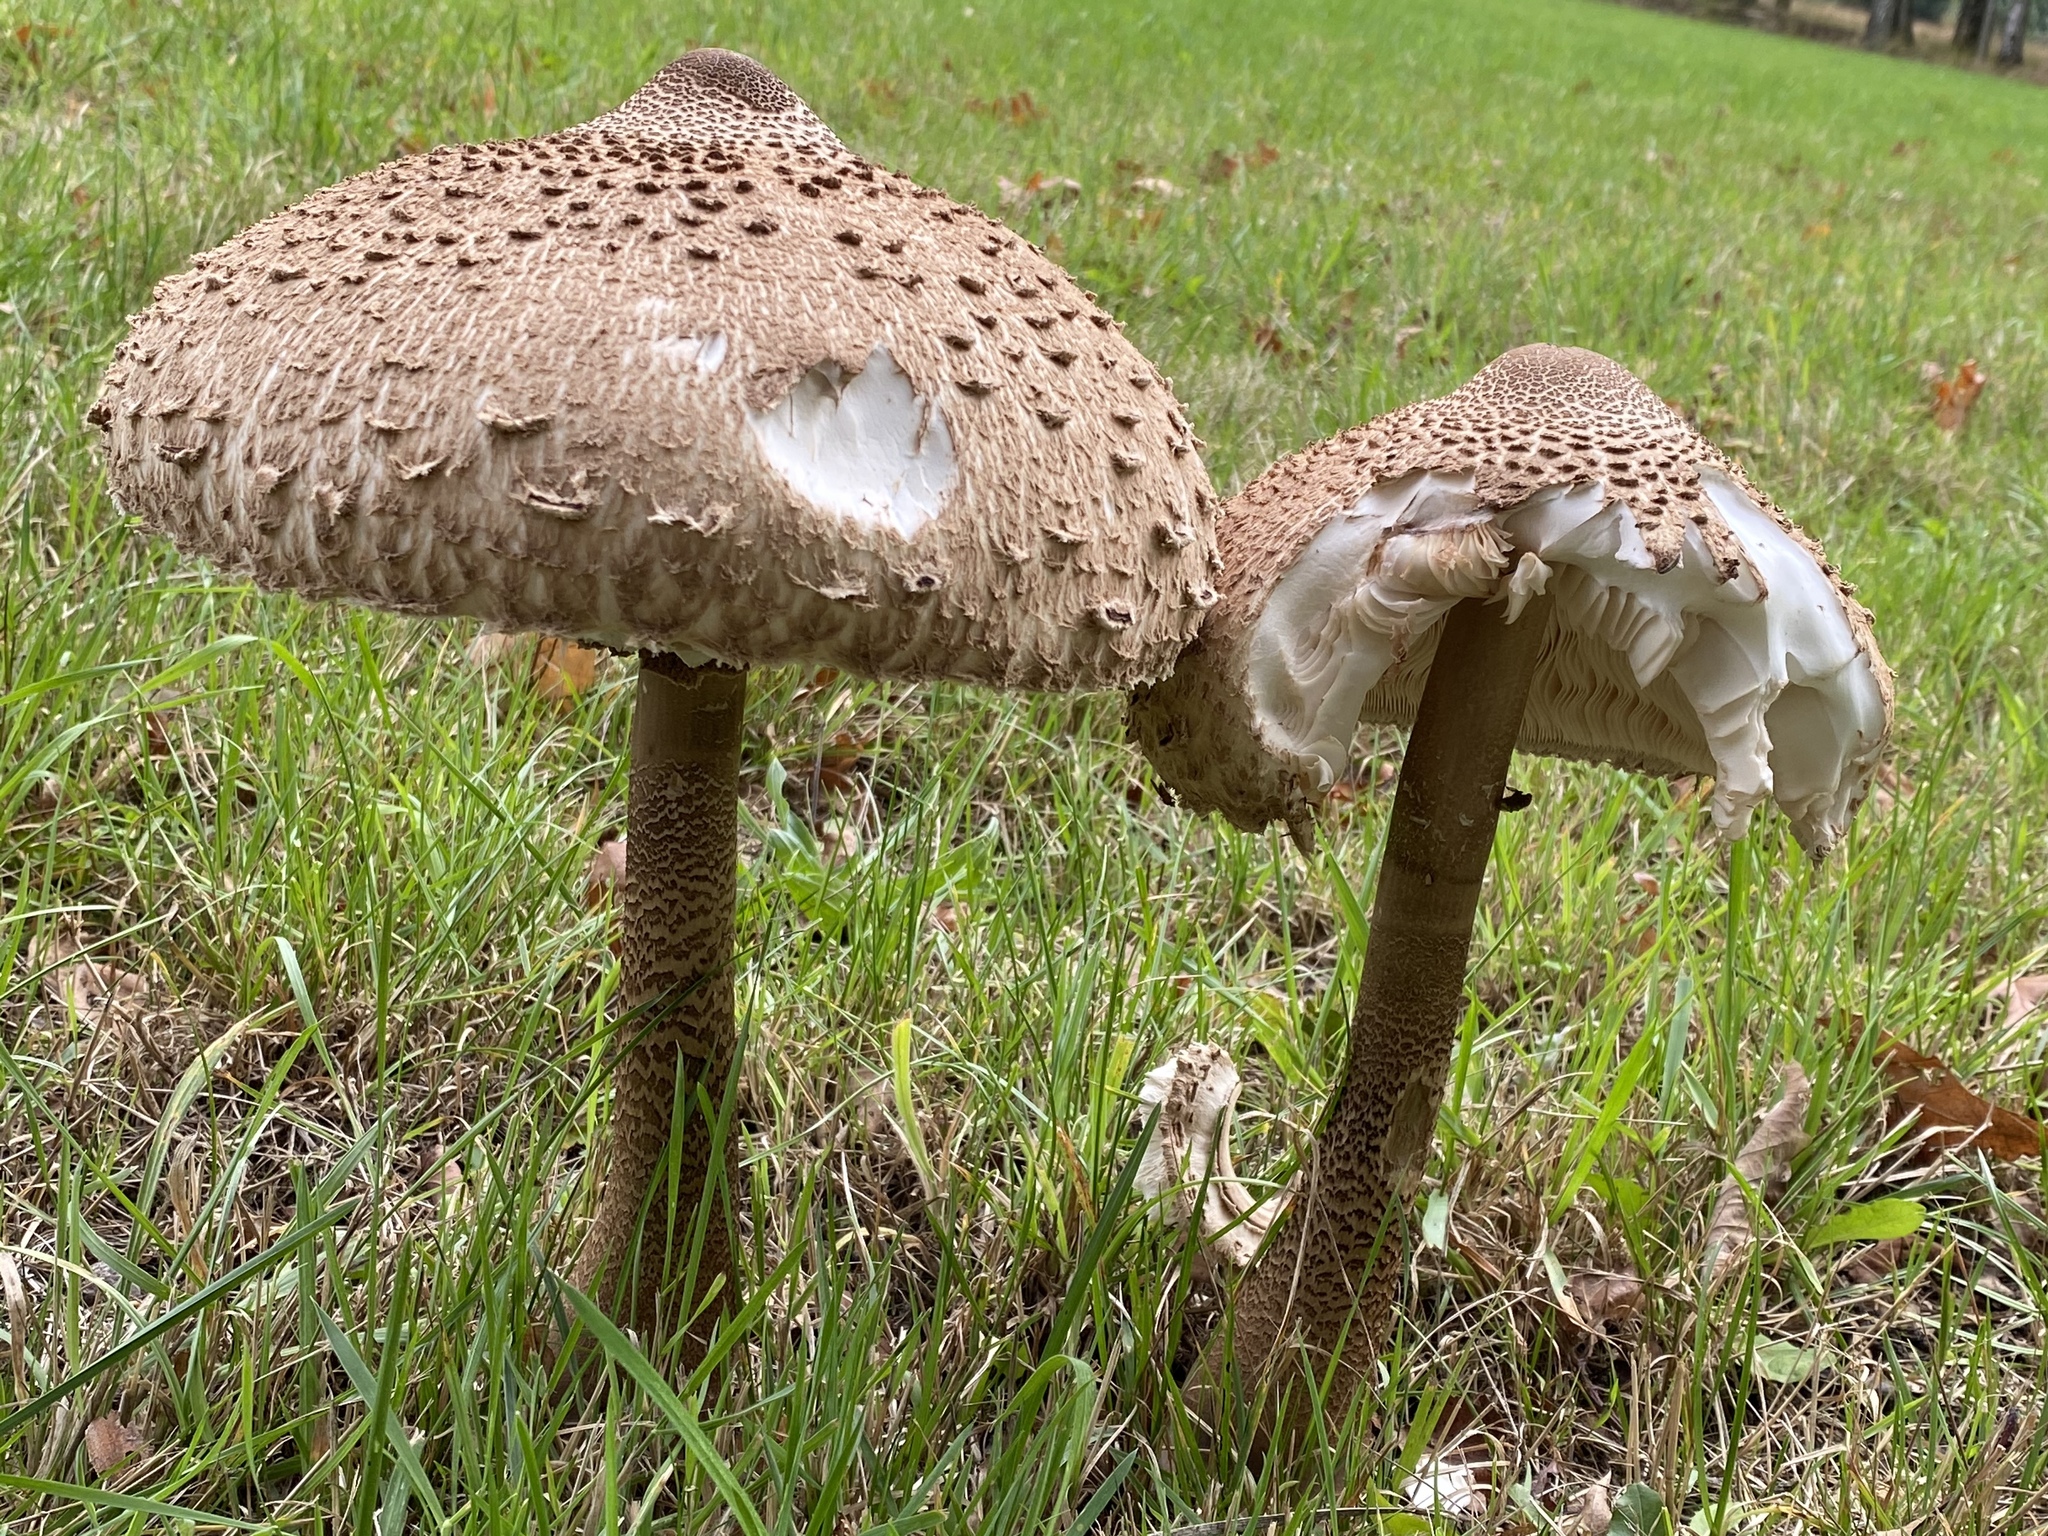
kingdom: Fungi
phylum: Basidiomycota
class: Agaricomycetes
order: Agaricales
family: Agaricaceae
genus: Macrolepiota
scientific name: Macrolepiota procera
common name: Parasol
